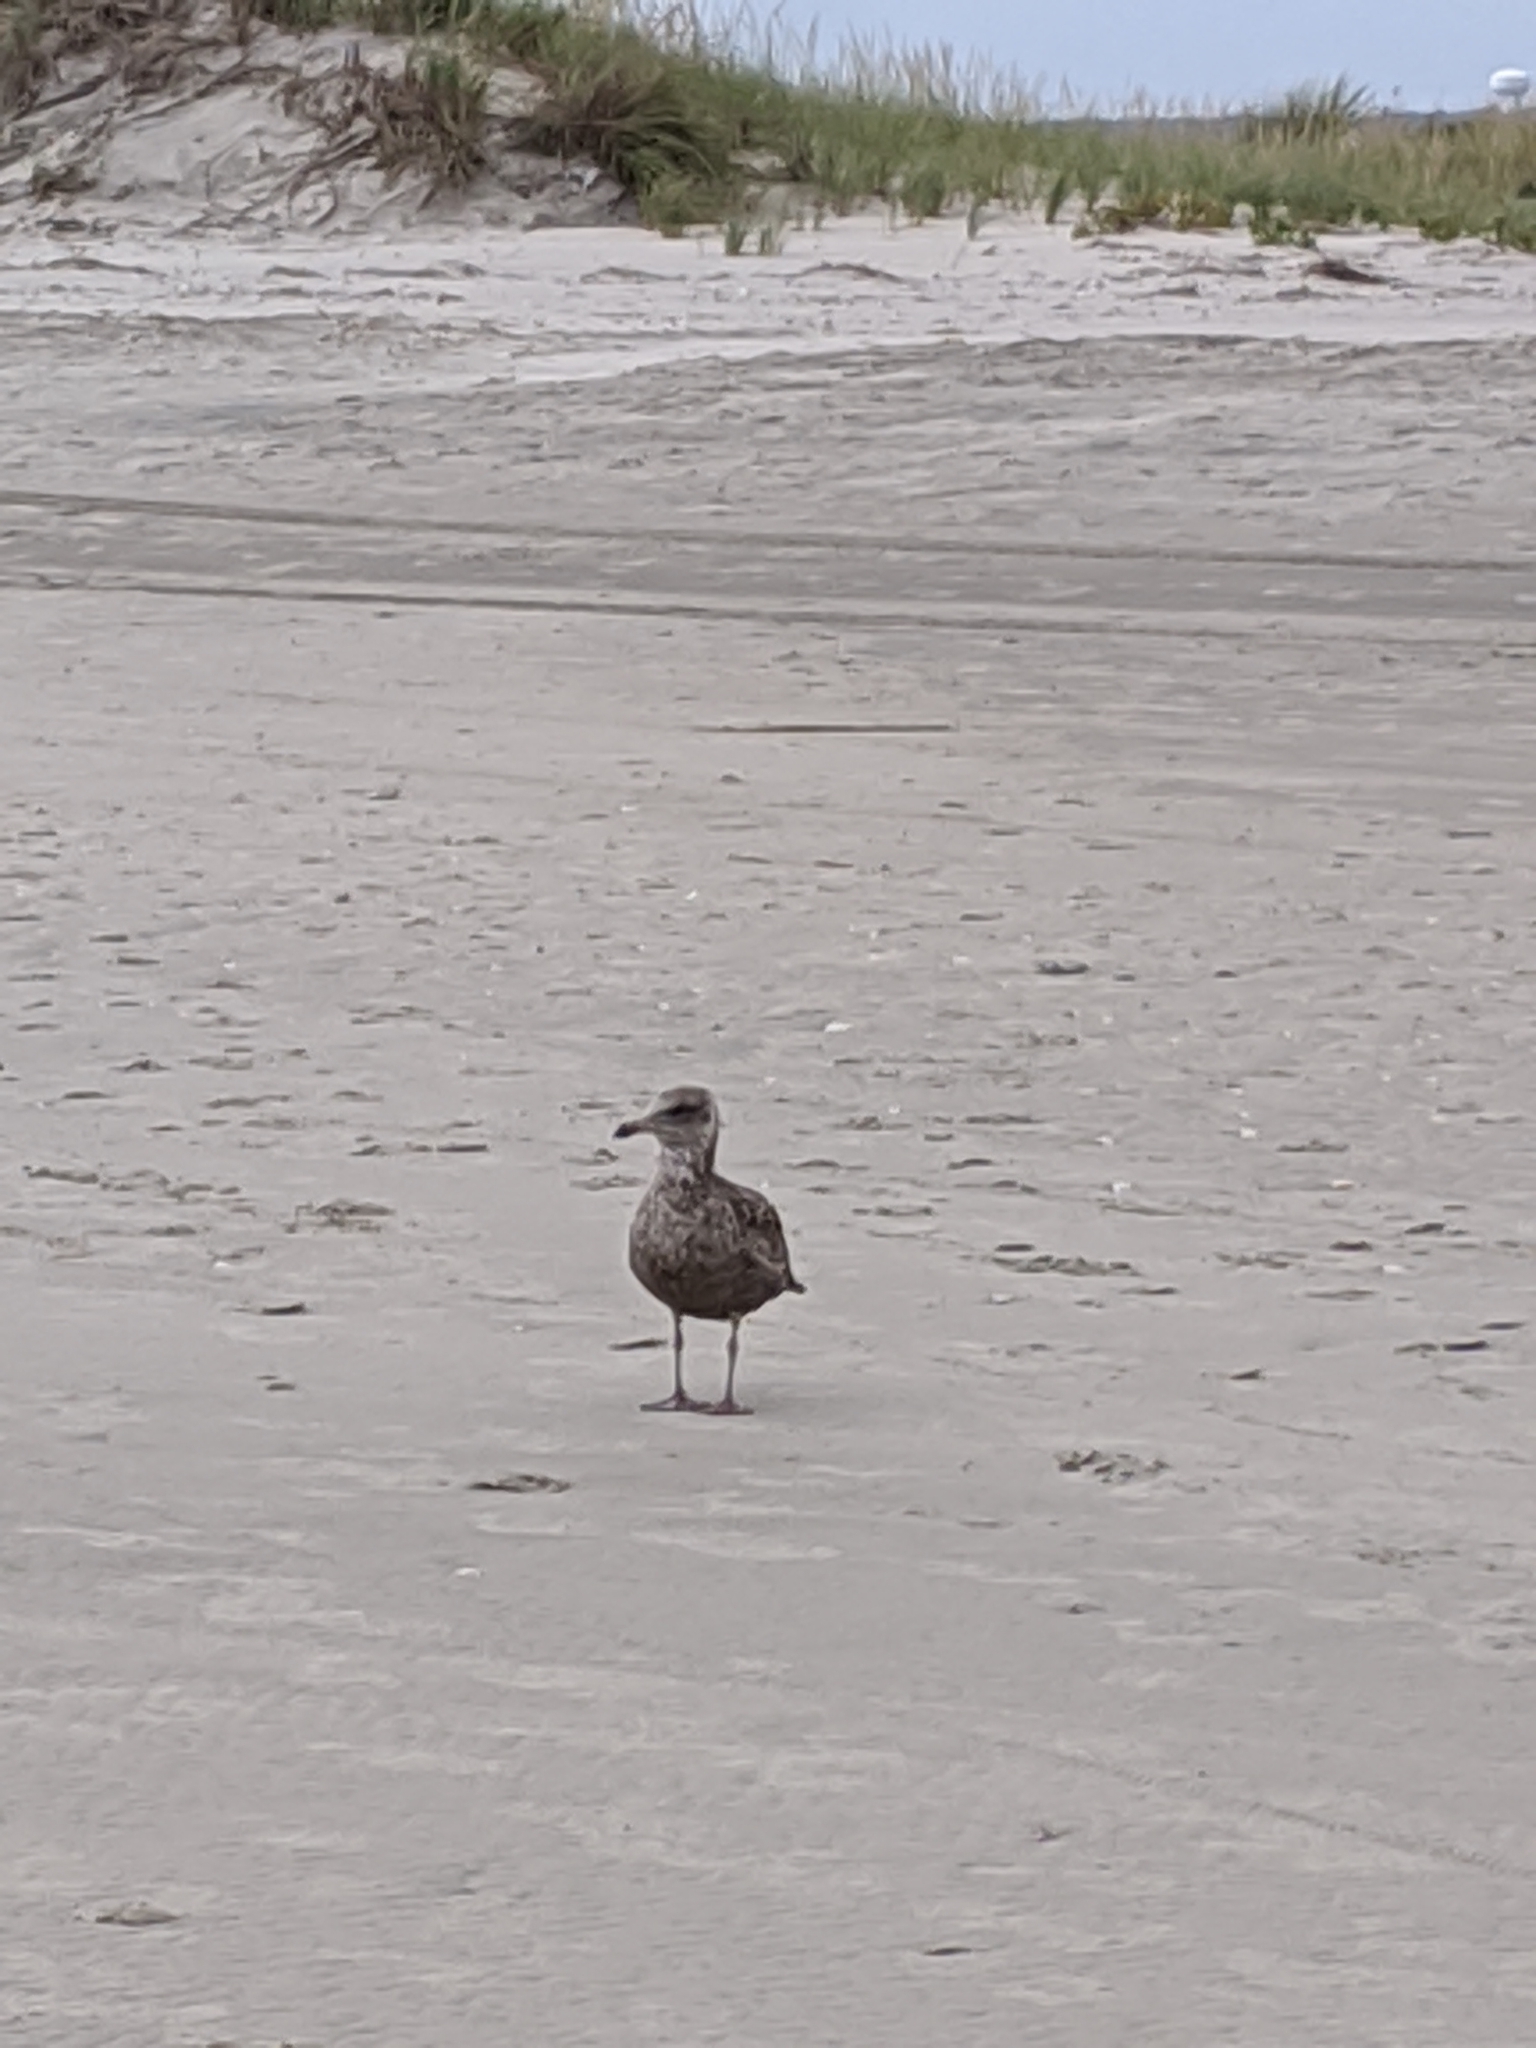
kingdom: Animalia
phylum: Chordata
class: Aves
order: Charadriiformes
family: Laridae
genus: Larus
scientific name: Larus argentatus
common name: Herring gull
